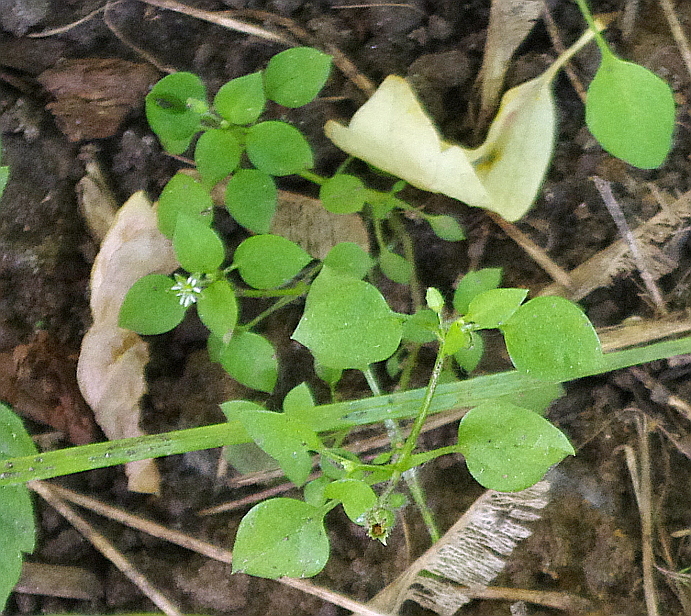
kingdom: Plantae
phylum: Tracheophyta
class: Magnoliopsida
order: Caryophyllales
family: Caryophyllaceae
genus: Stellaria
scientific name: Stellaria media
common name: Common chickweed
